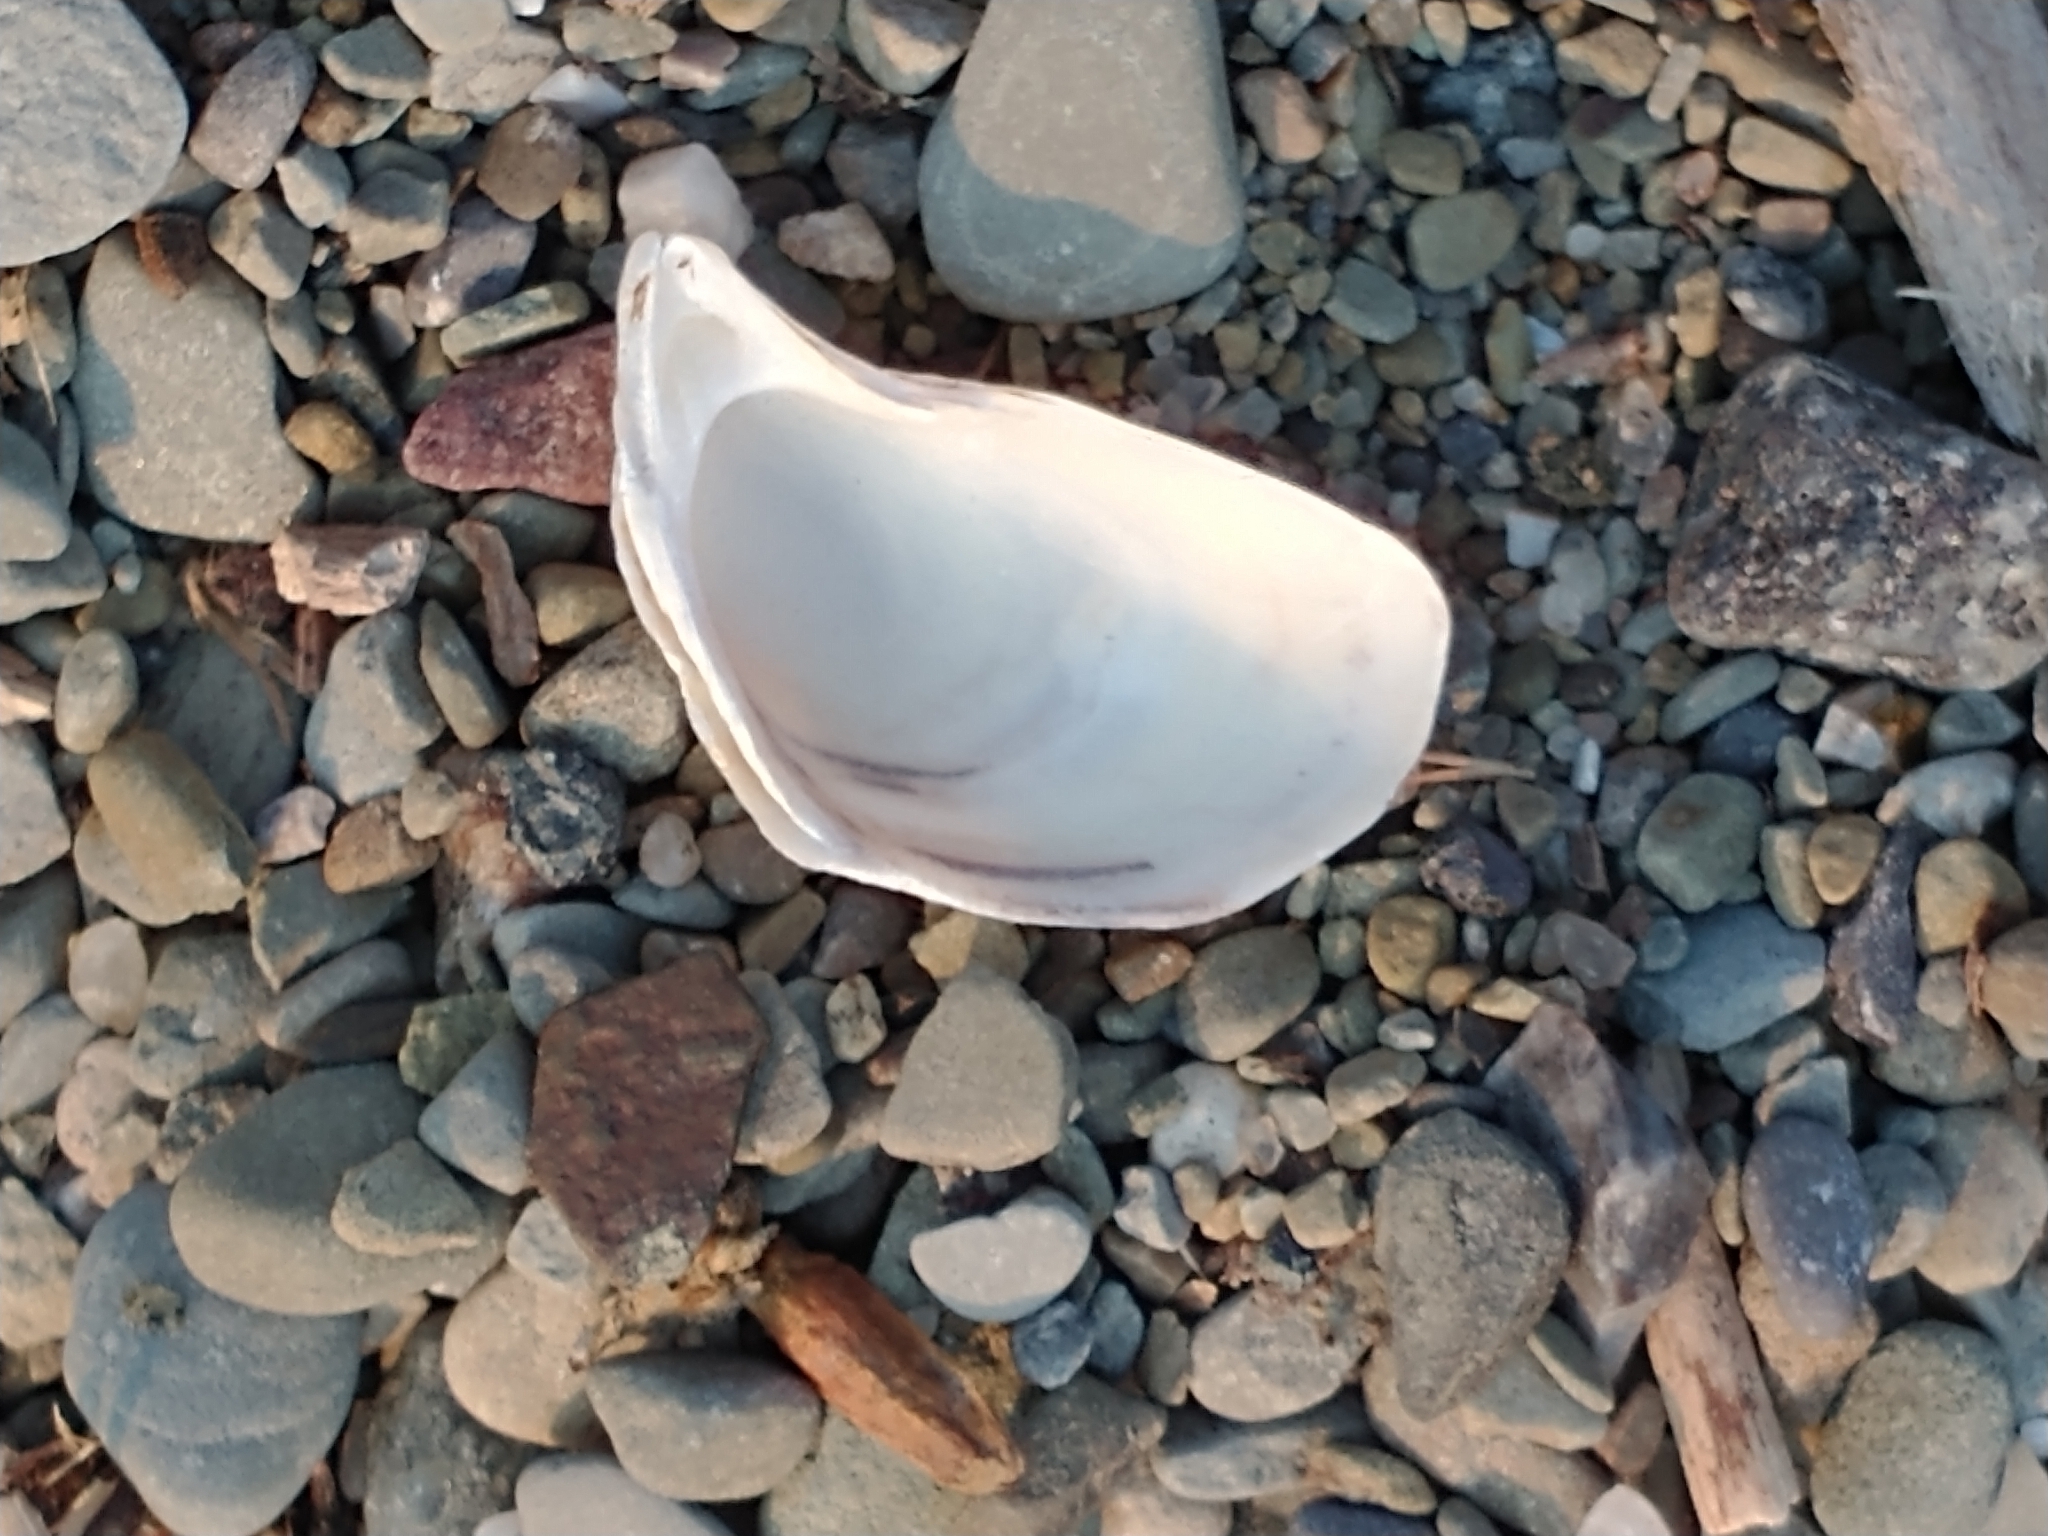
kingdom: Animalia
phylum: Mollusca
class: Bivalvia
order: Myida
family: Dreissenidae
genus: Dreissena
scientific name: Dreissena bugensis
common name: Quagga mussel
